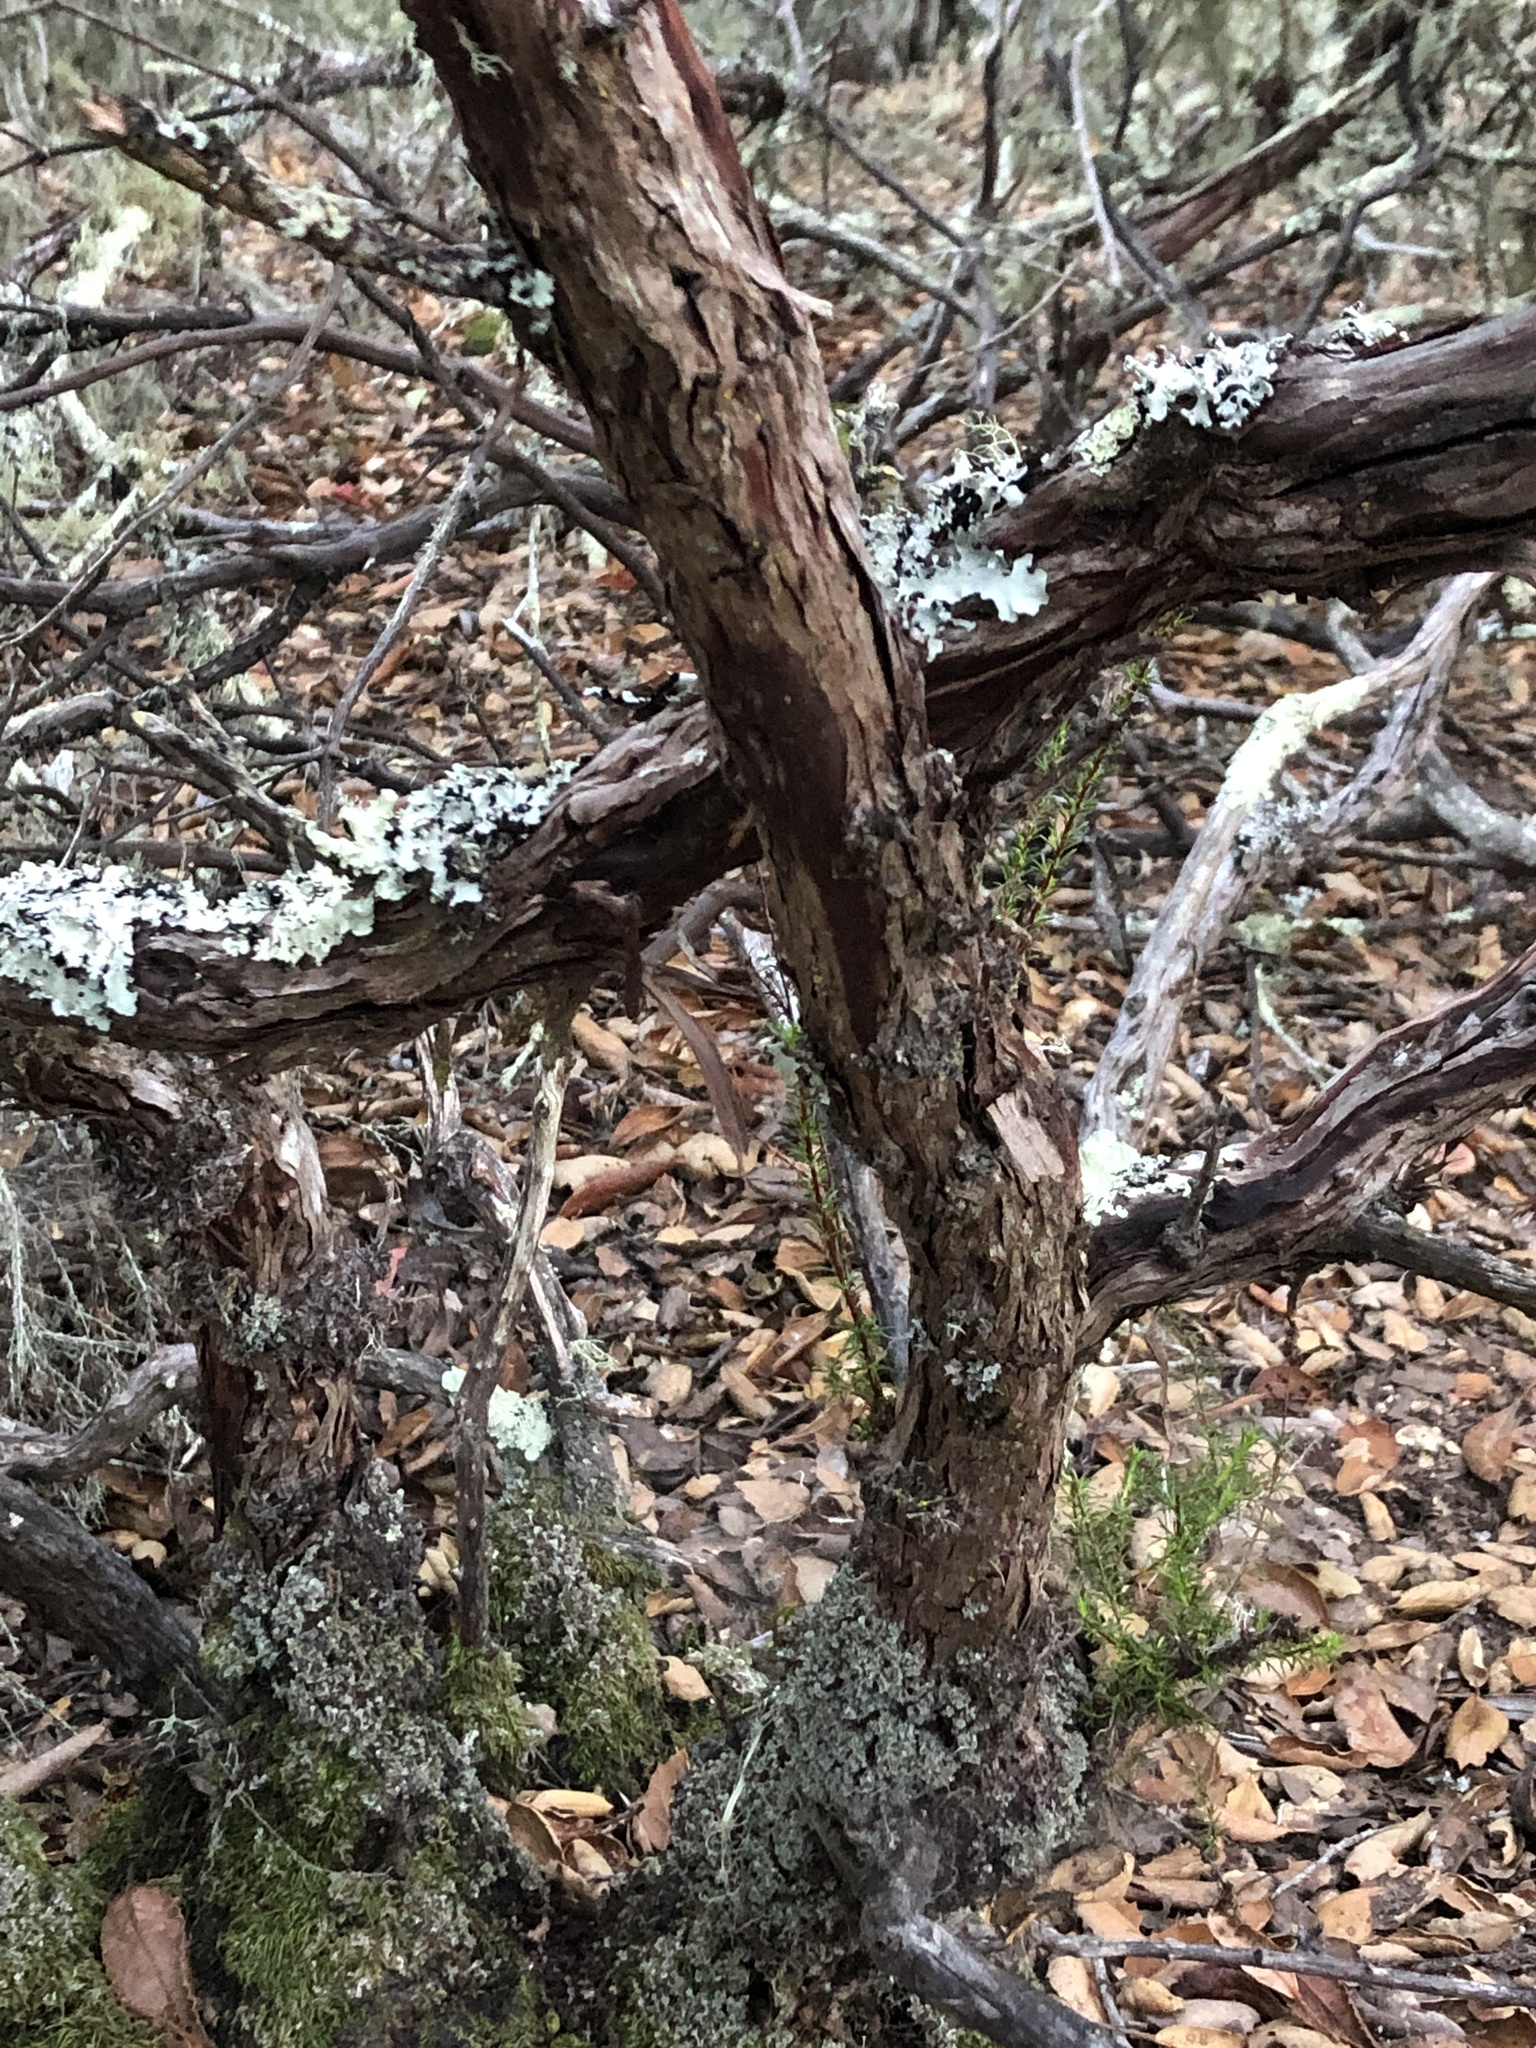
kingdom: Plantae
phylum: Tracheophyta
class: Magnoliopsida
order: Rosales
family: Rosaceae
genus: Adenostoma
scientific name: Adenostoma fasciculatum
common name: Chamise
